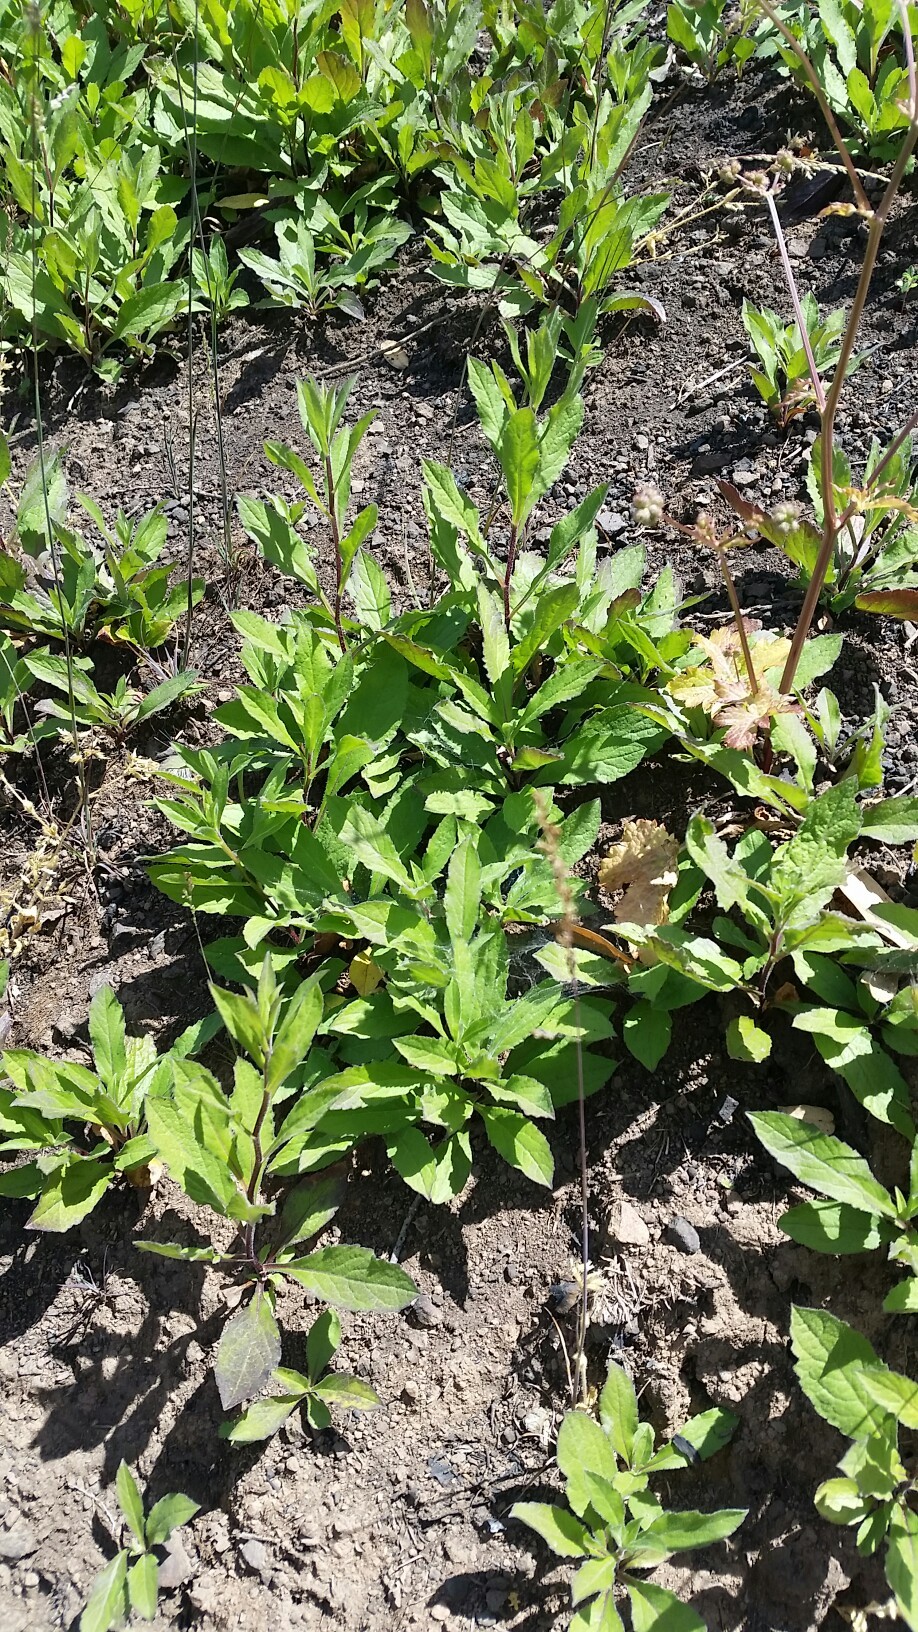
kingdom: Plantae
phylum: Tracheophyta
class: Magnoliopsida
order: Asterales
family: Asteraceae
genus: Eurybia
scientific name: Eurybia radulina
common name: Rough-leaved aster
